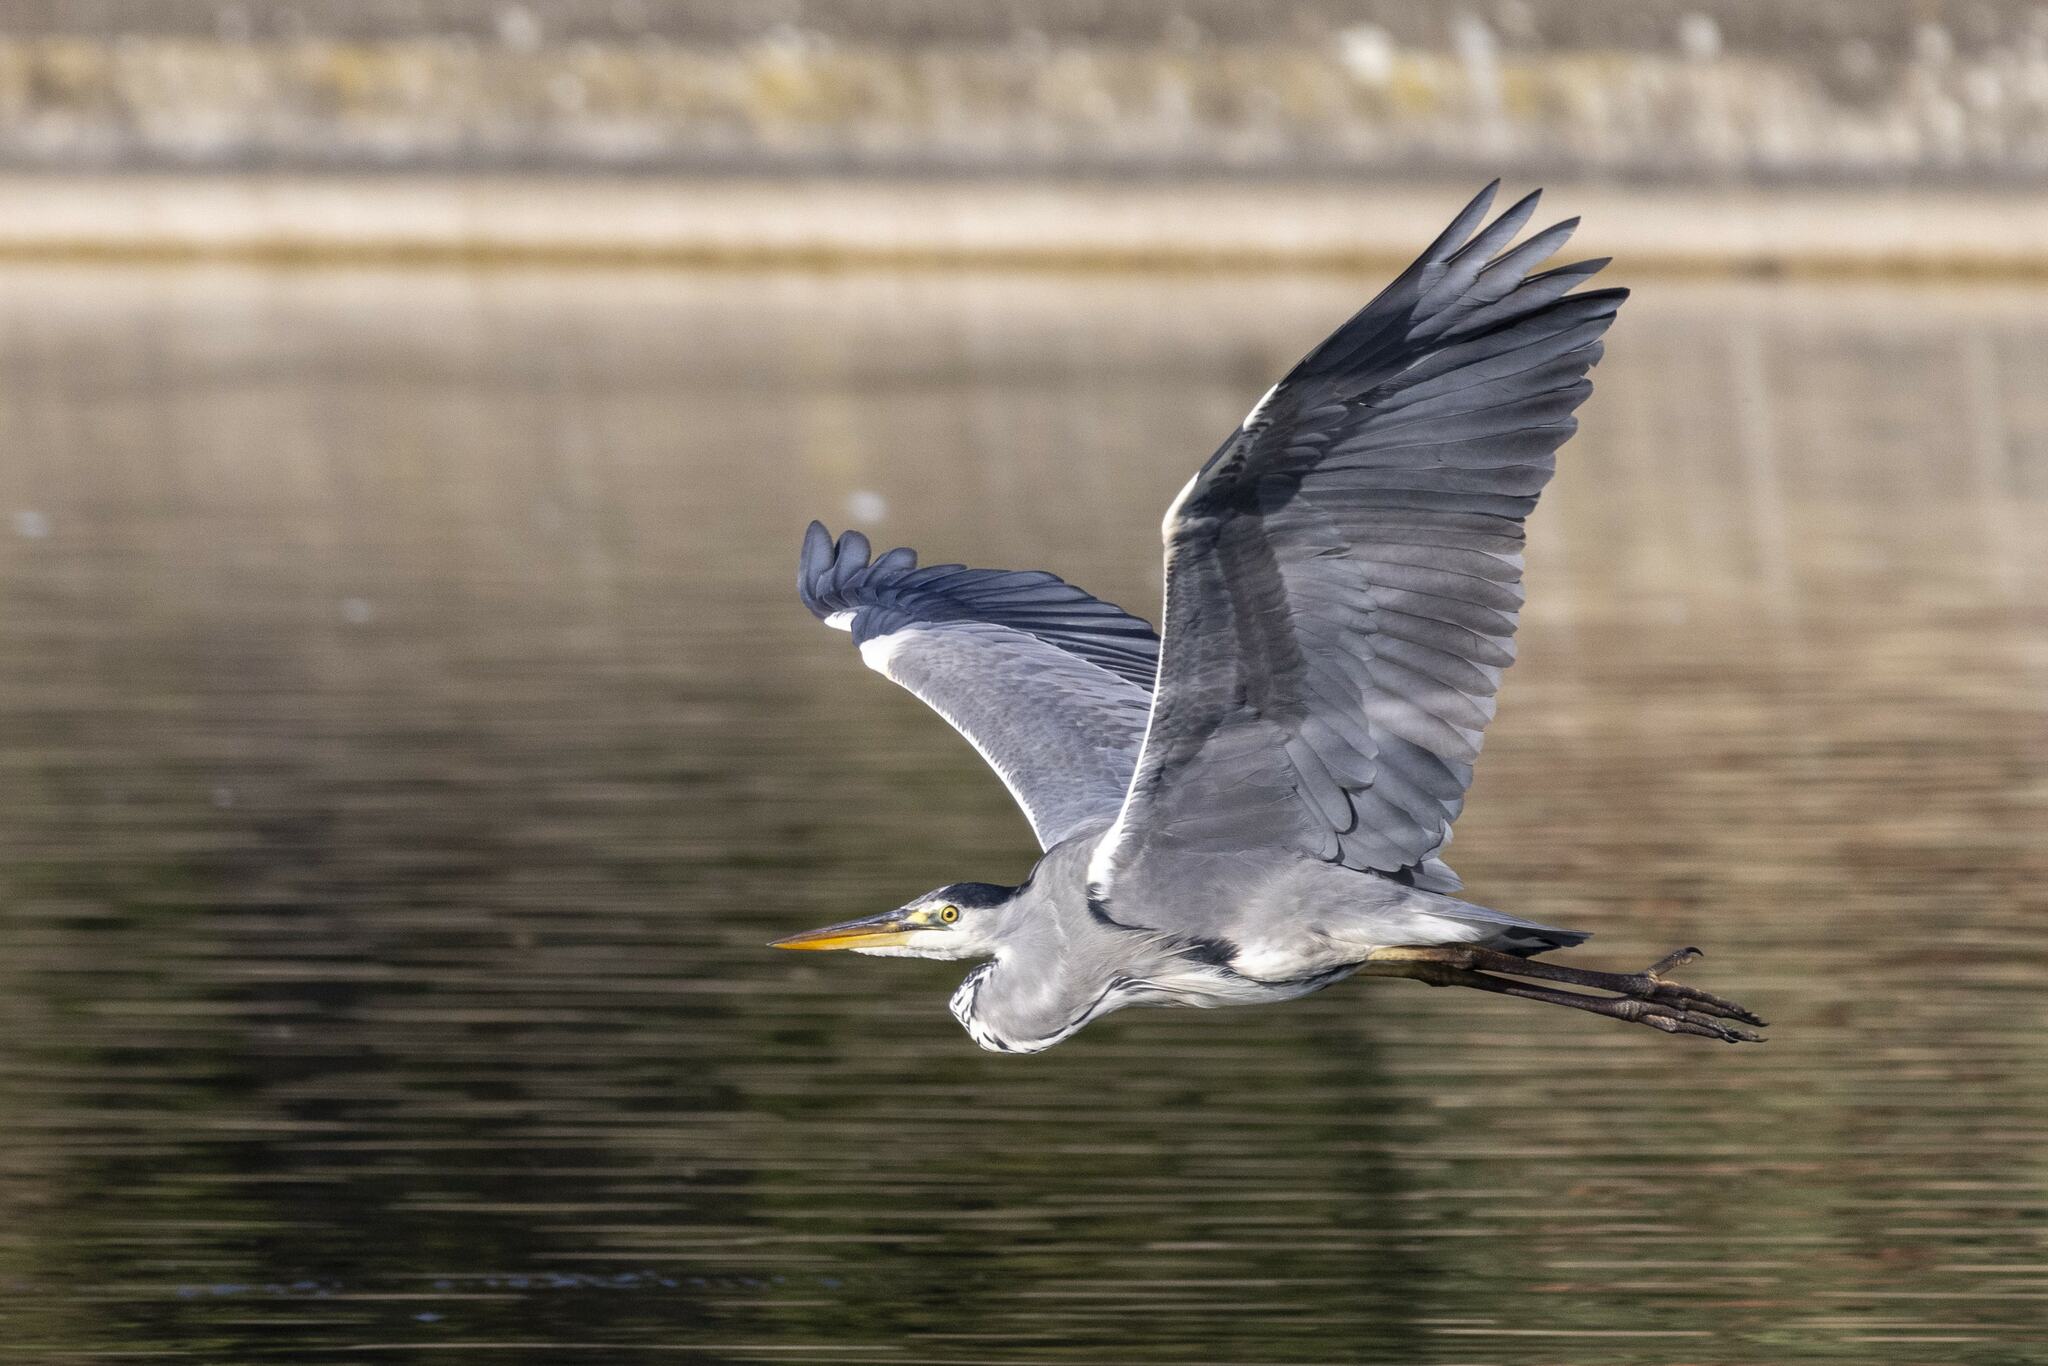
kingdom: Animalia
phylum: Chordata
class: Aves
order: Pelecaniformes
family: Ardeidae
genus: Ardea
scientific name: Ardea cinerea
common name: Grey heron
